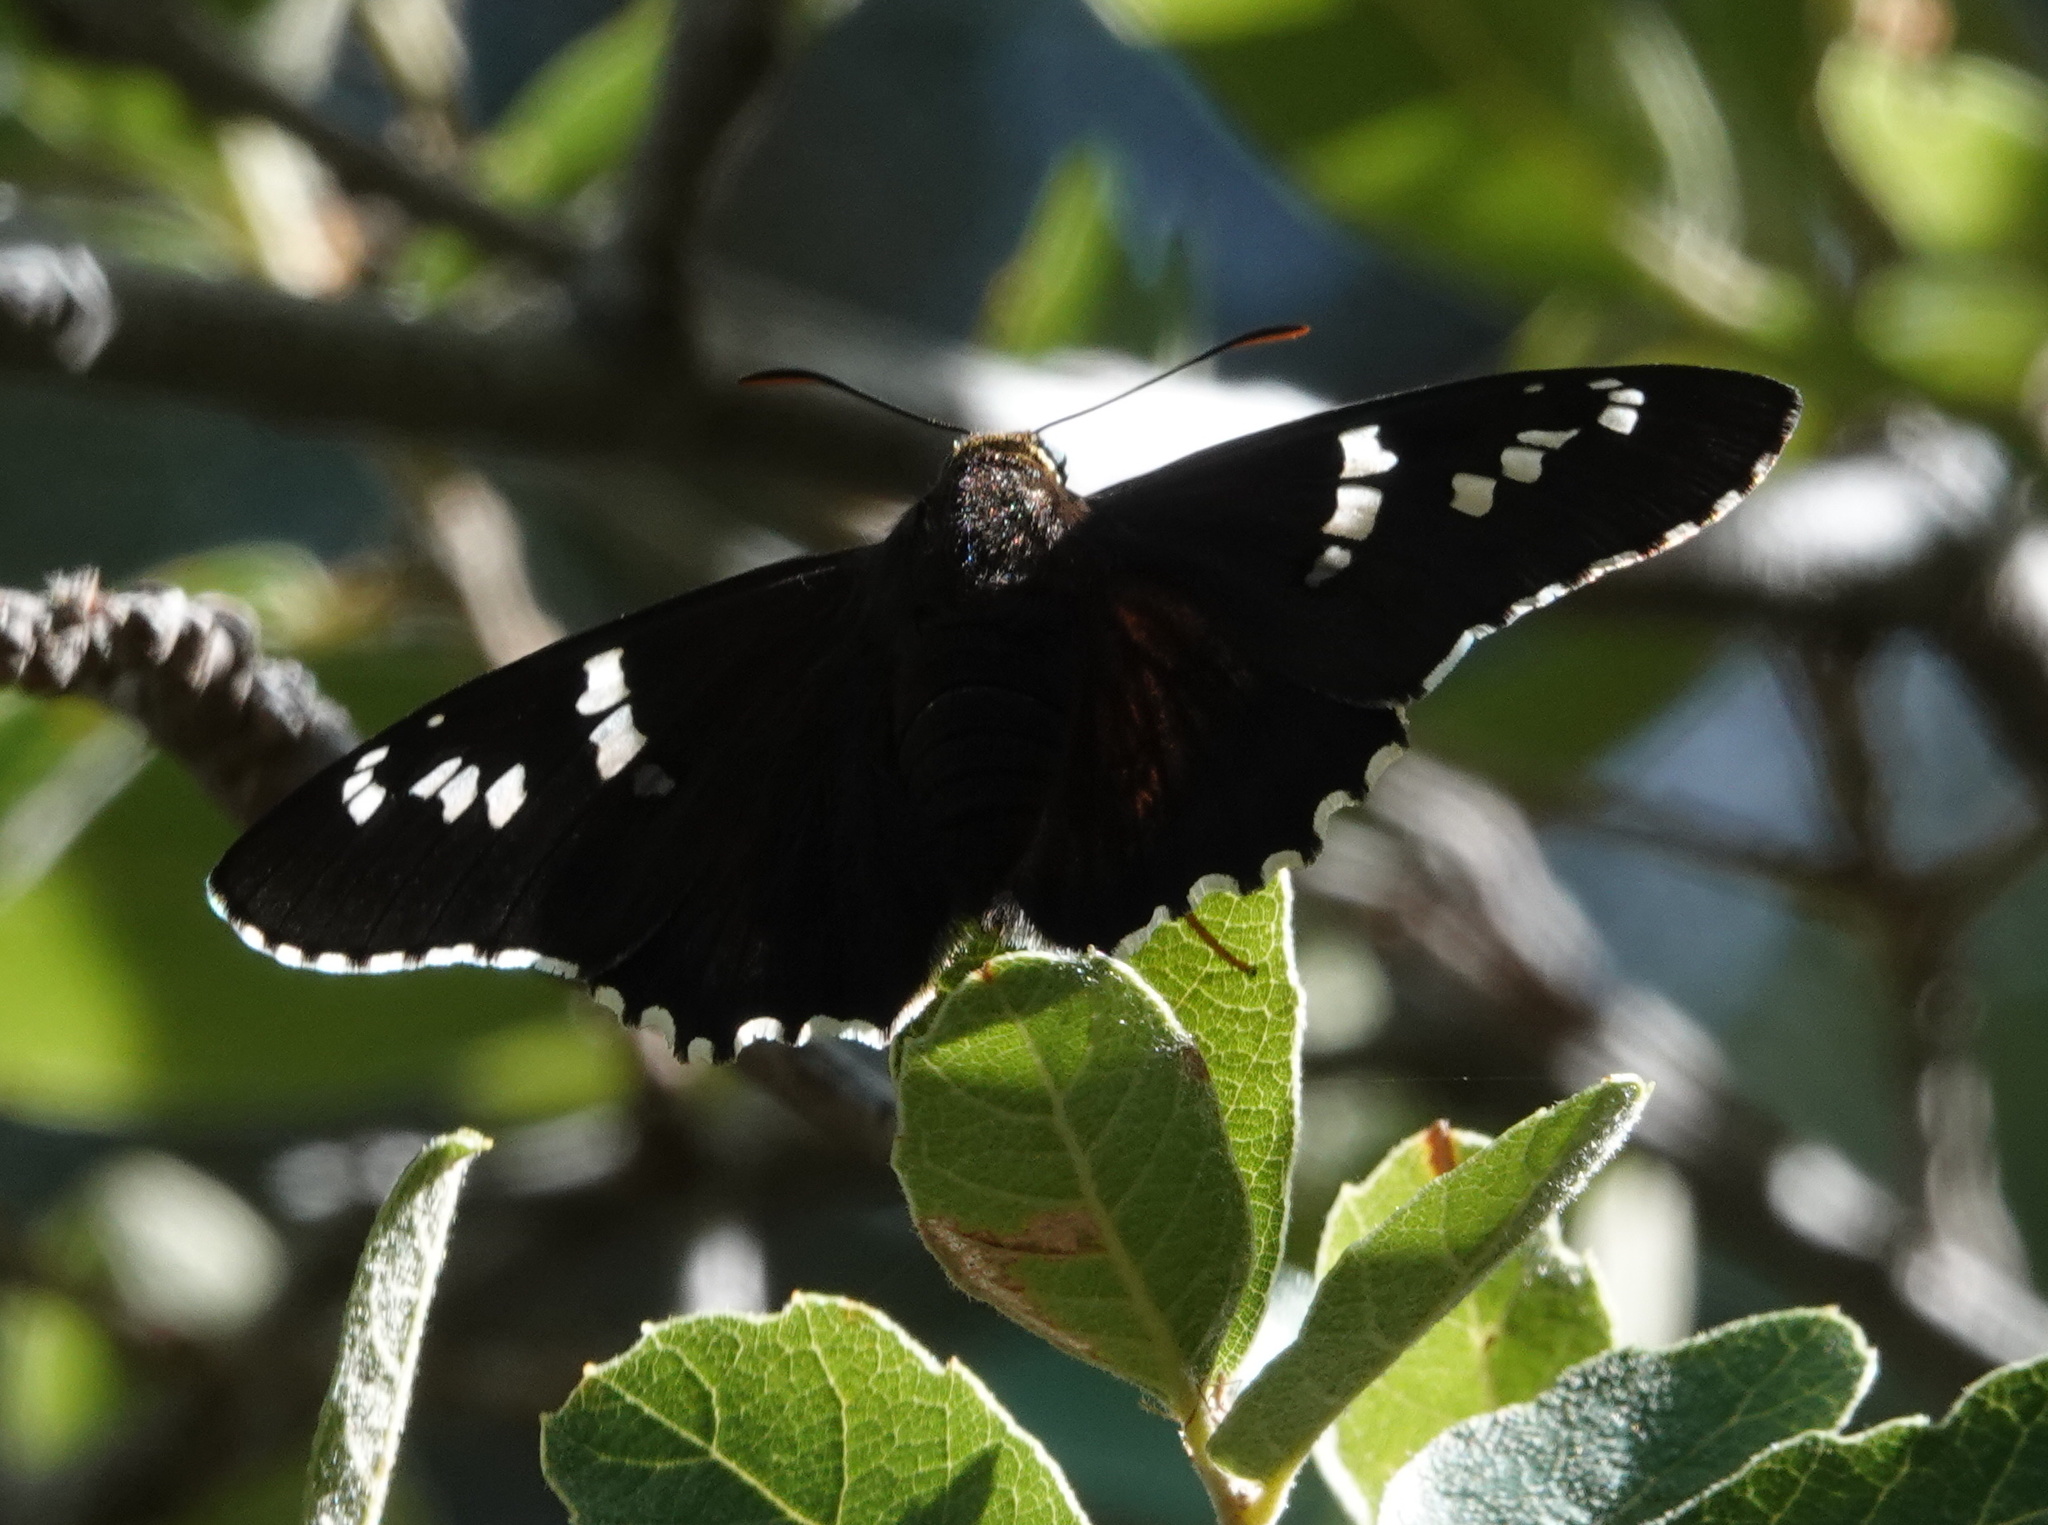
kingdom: Animalia
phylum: Arthropoda
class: Insecta
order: Lepidoptera
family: Hesperiidae
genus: Pyrrhopyge
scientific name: Pyrrhopyge araxes
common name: Dull firetip
